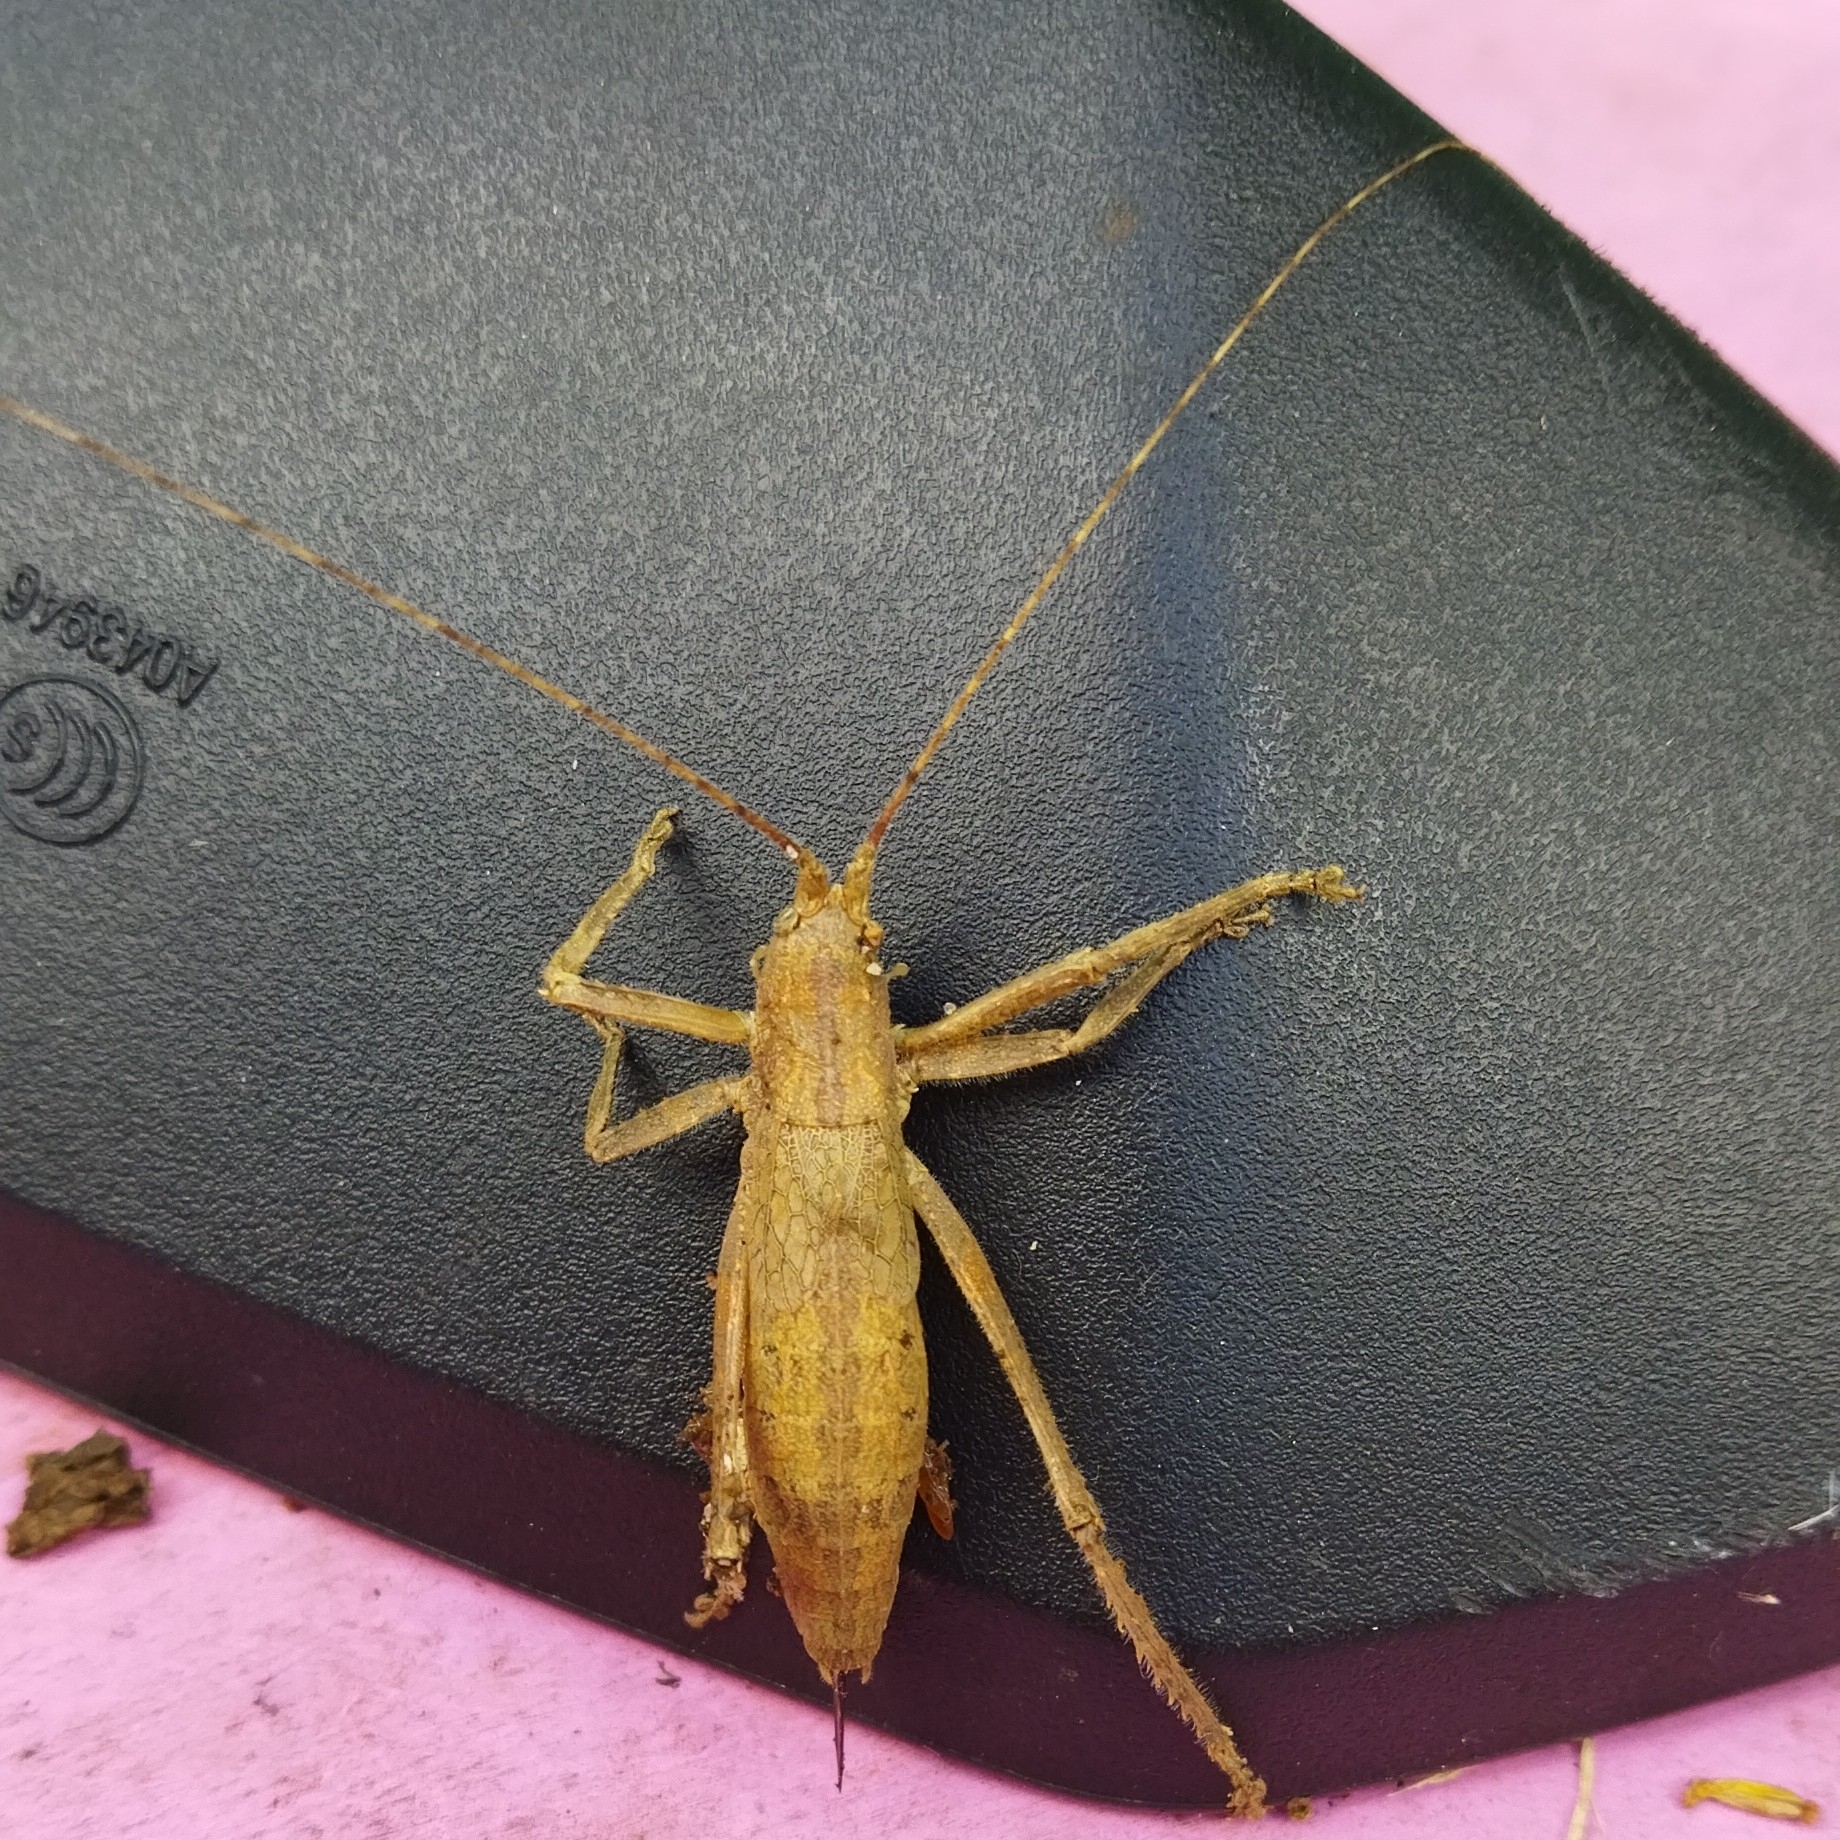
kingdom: Animalia
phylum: Arthropoda
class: Insecta
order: Orthoptera
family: Tettigoniidae
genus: Dasyscelus
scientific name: Dasyscelus normalis
